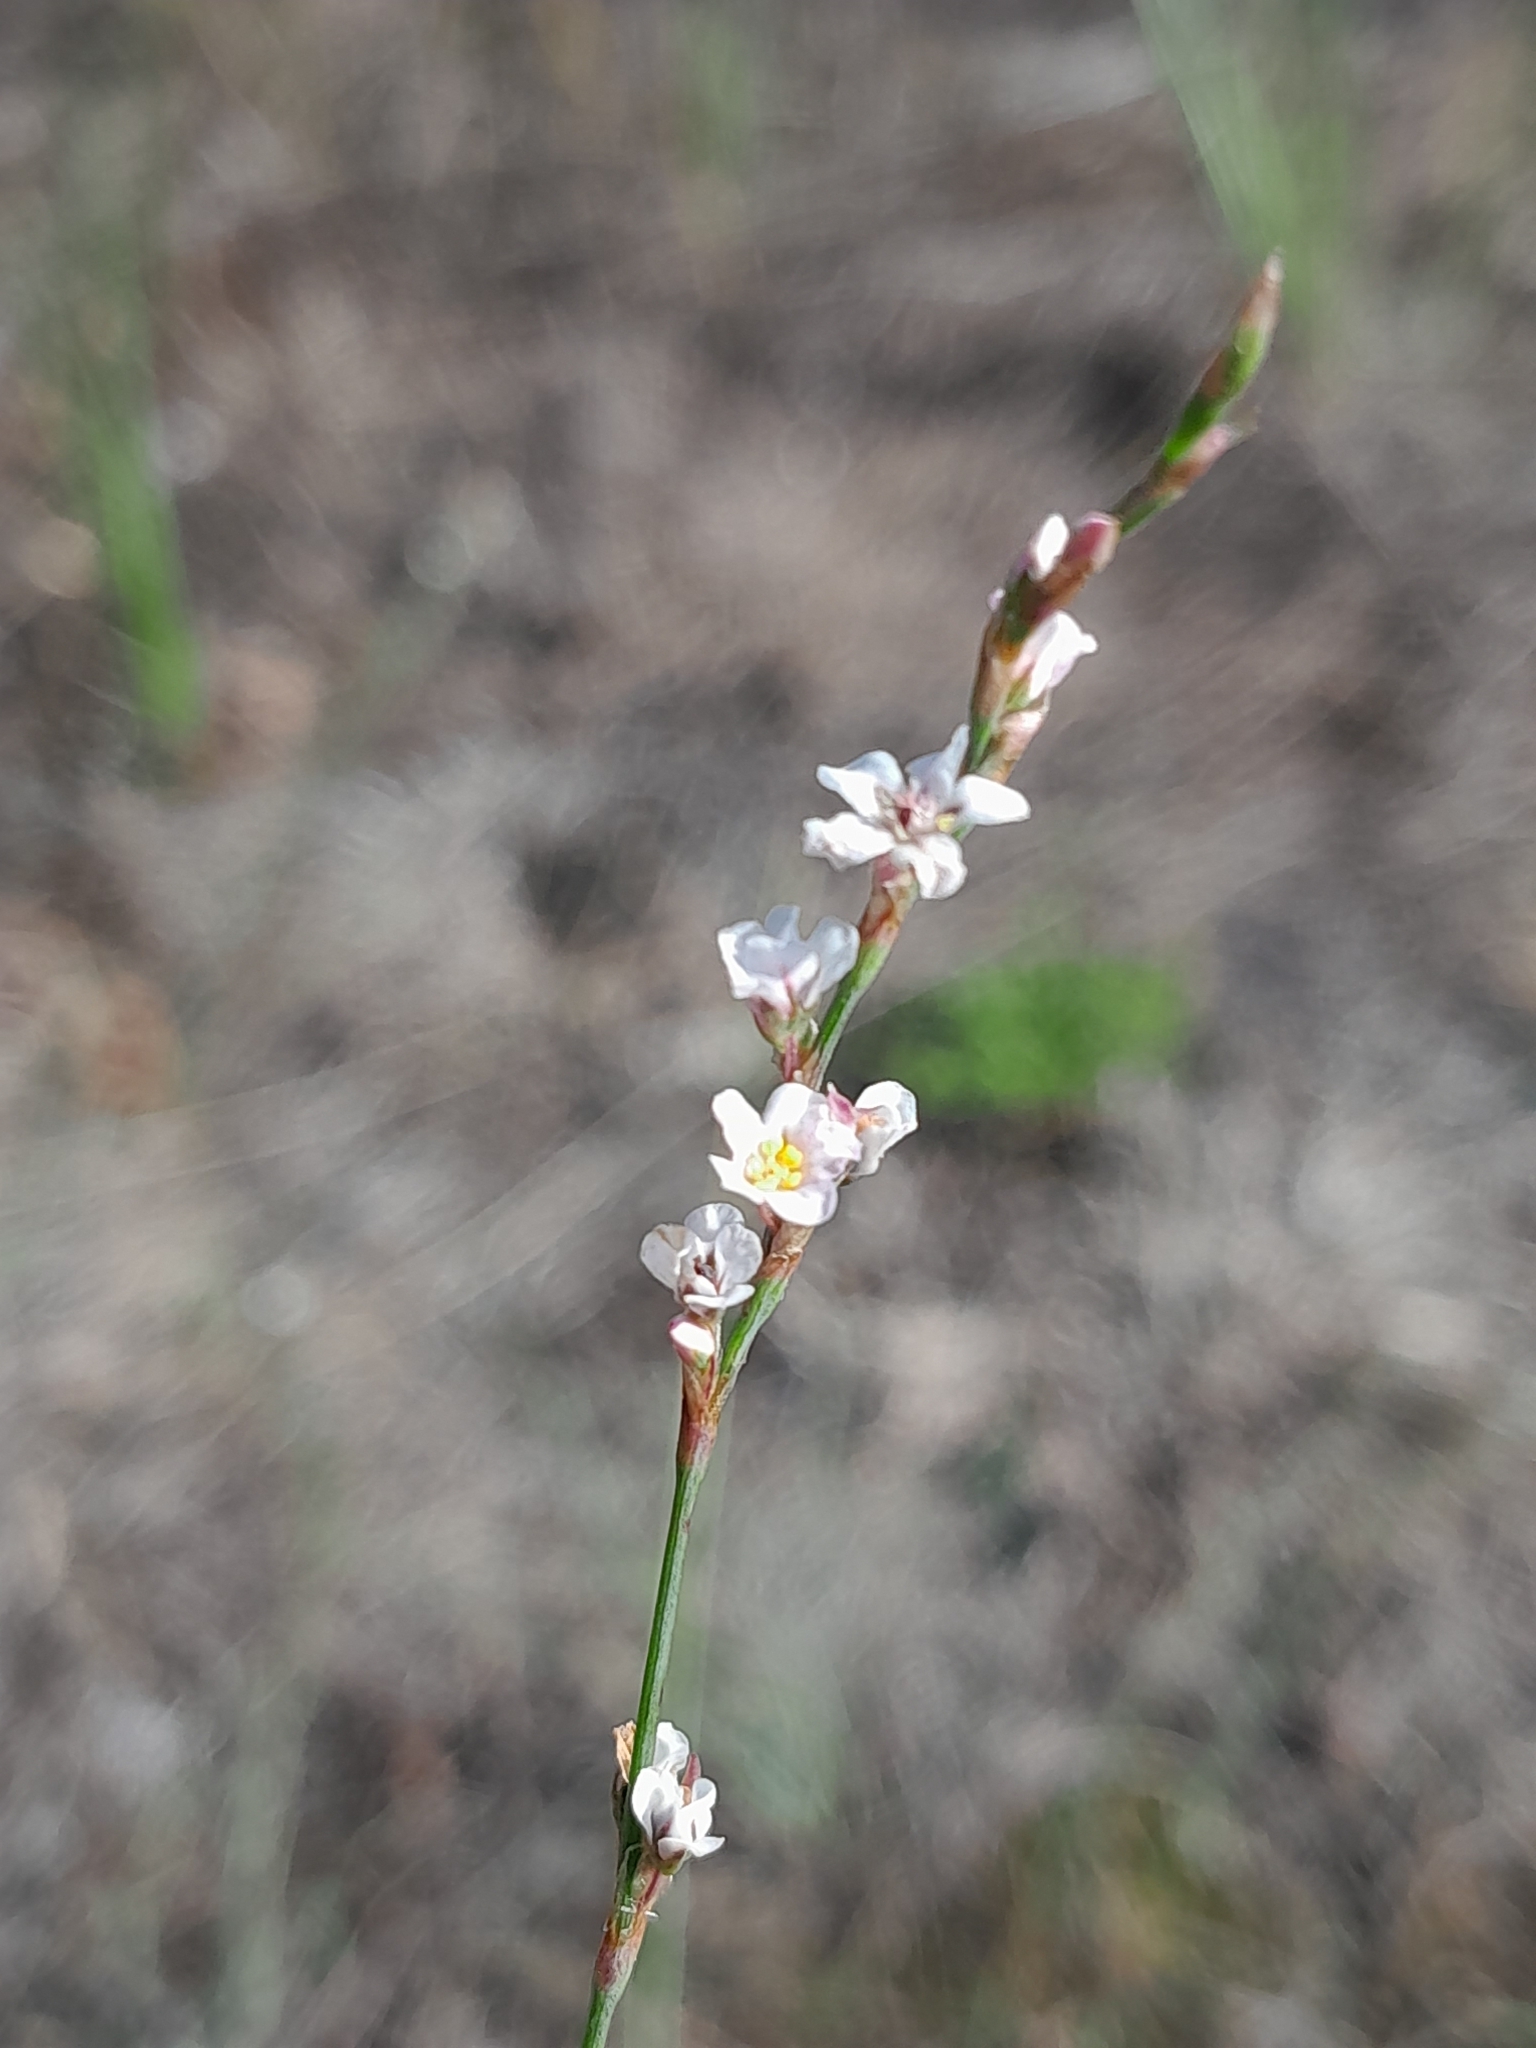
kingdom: Plantae
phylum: Tracheophyta
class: Magnoliopsida
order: Caryophyllales
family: Polygonaceae
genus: Polygonum
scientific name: Polygonum arenarium
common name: Lesser red-knotgrass
